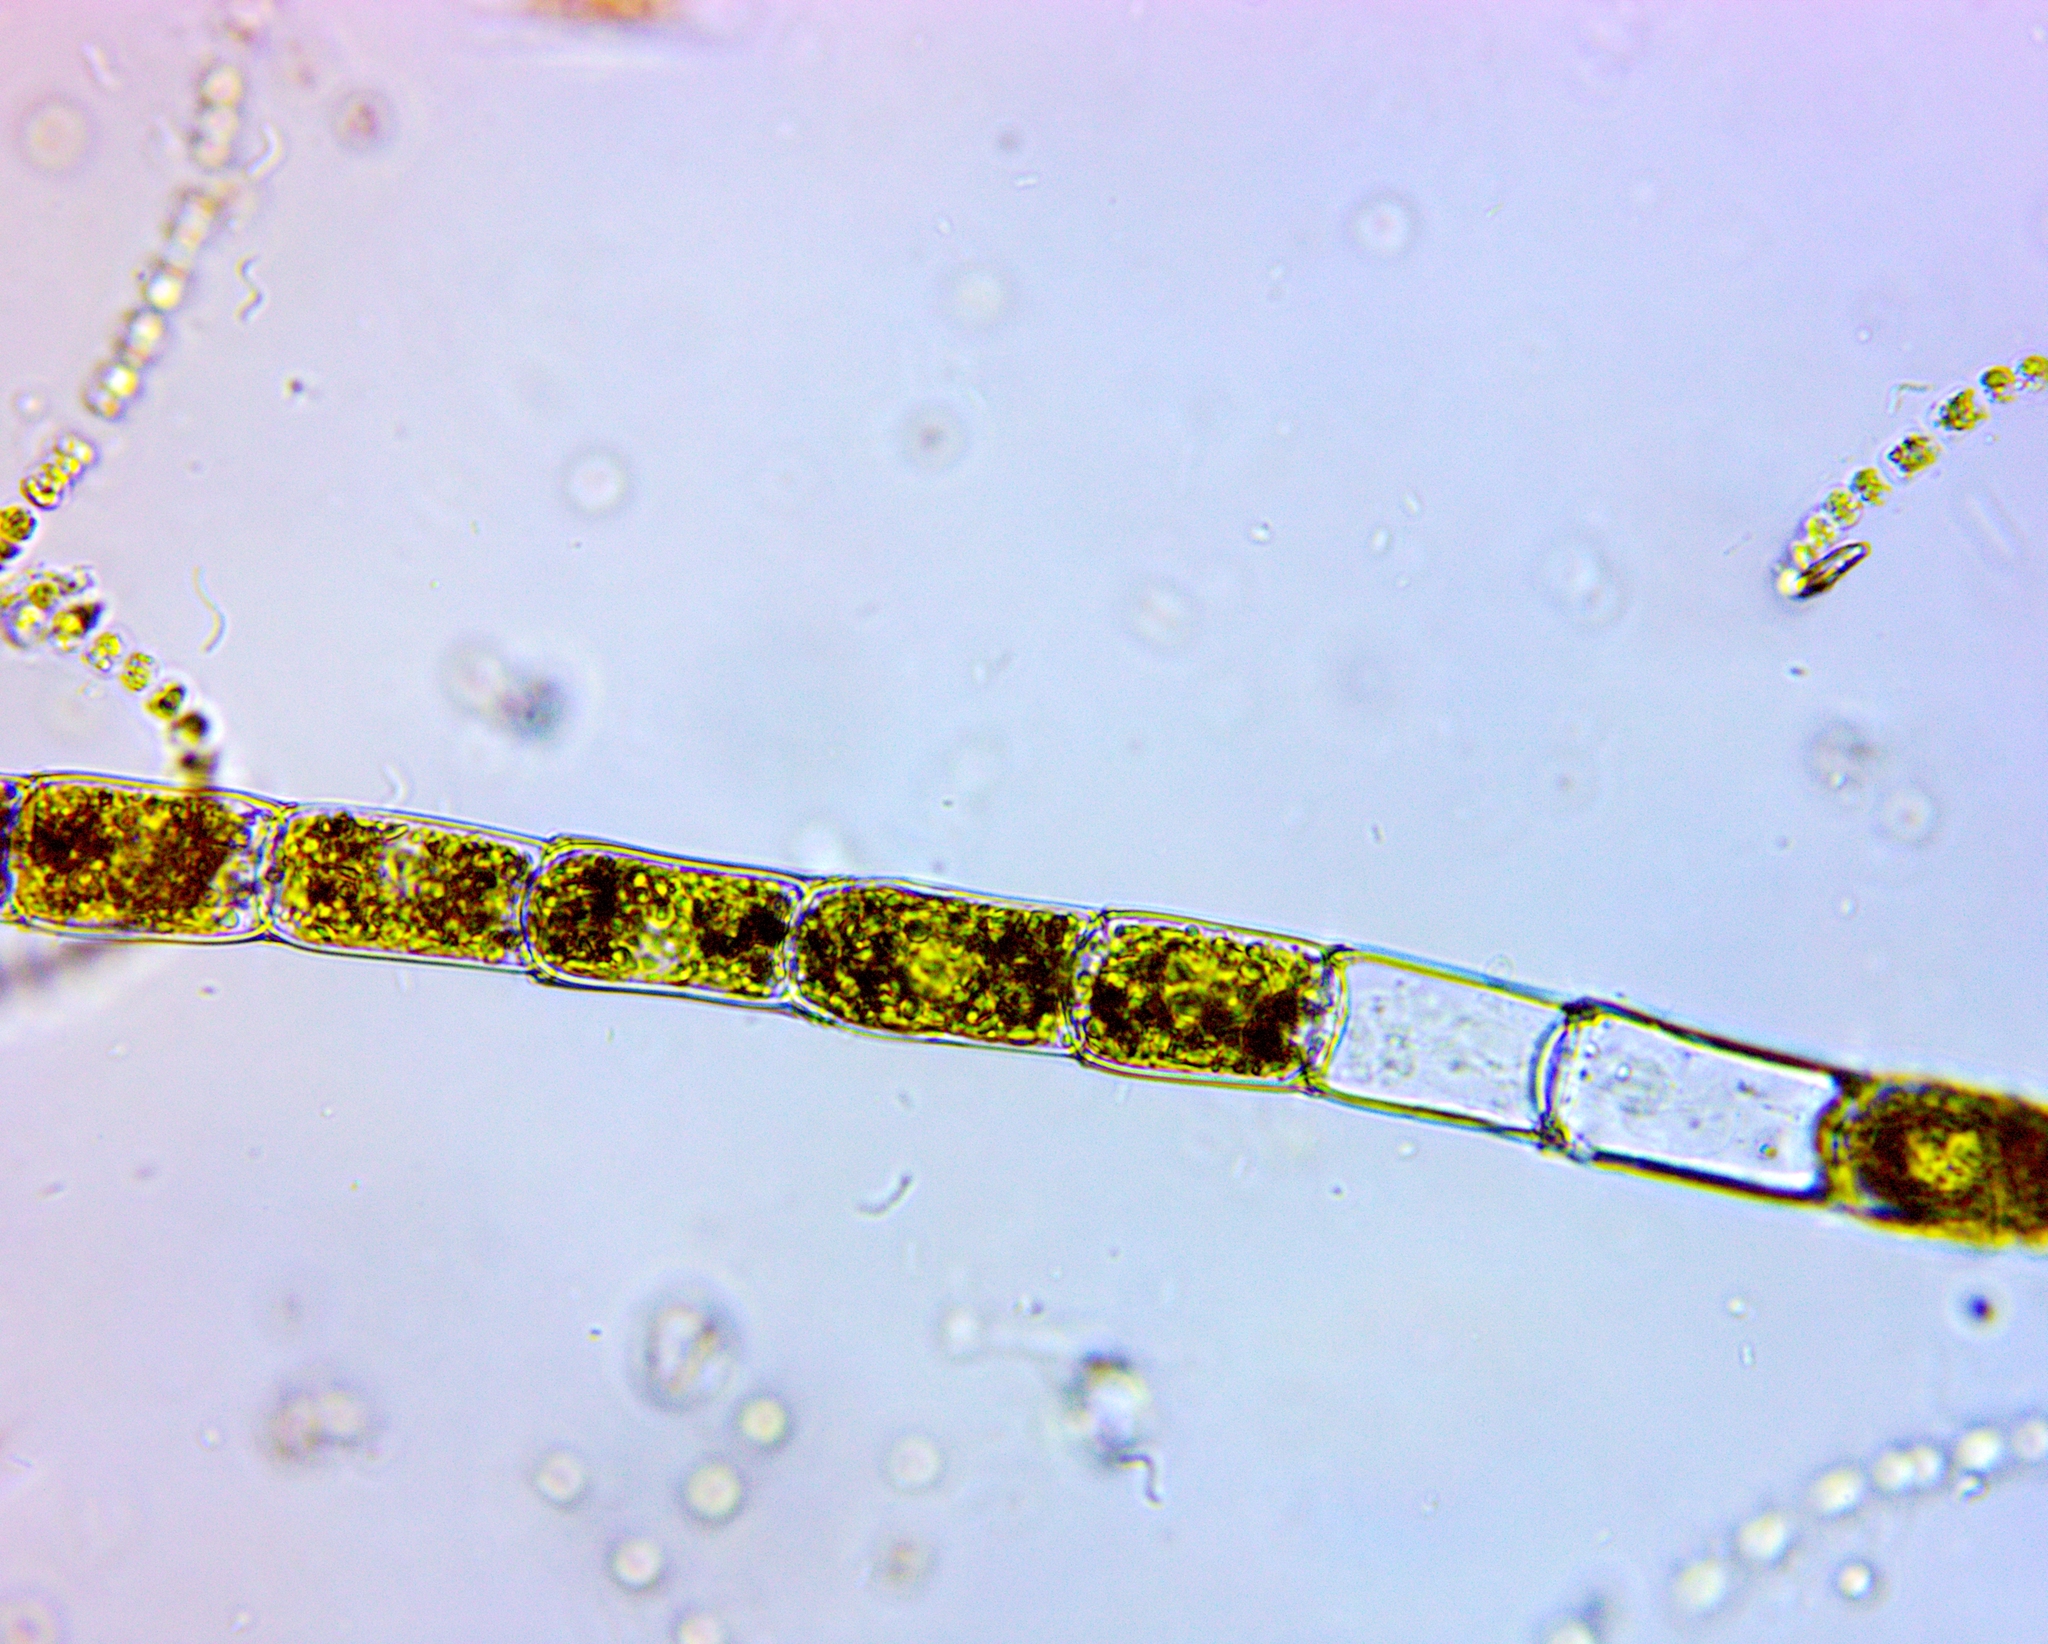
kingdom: Plantae
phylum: Chlorophyta
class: Chlorophyceae
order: Oedogoniales
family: Oedogoniaceae
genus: Oedogonium
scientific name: Oedogonium
